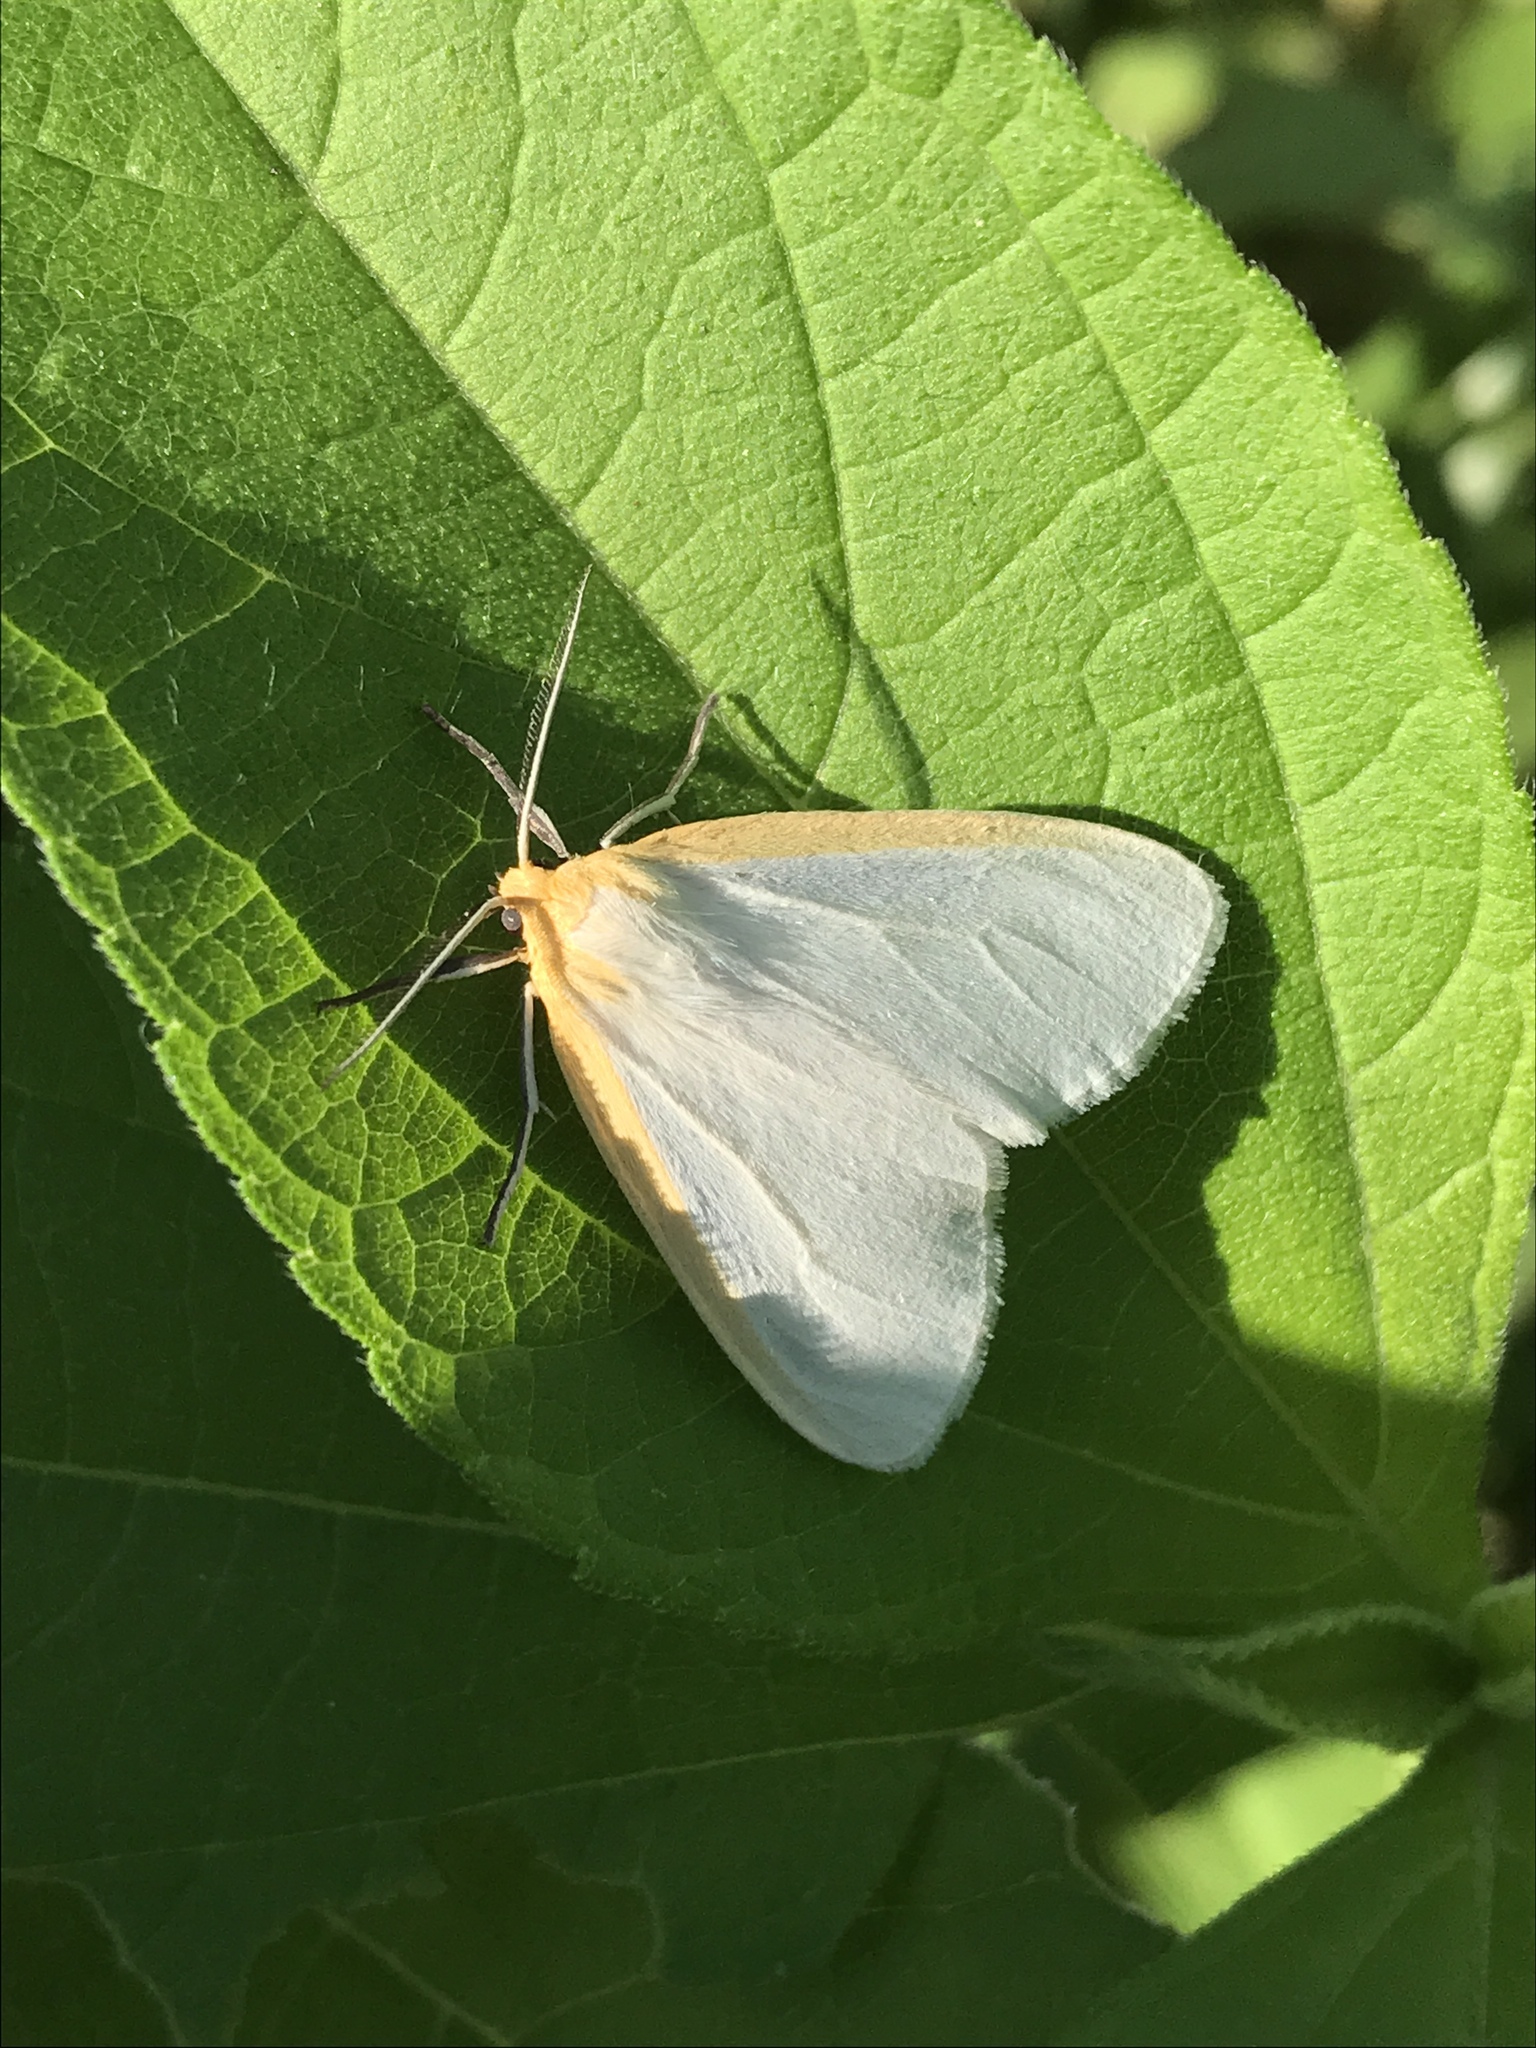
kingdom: Animalia
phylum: Arthropoda
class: Insecta
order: Lepidoptera
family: Erebidae
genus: Cycnia
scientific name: Cycnia tenera
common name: Delicate cycnia moth
